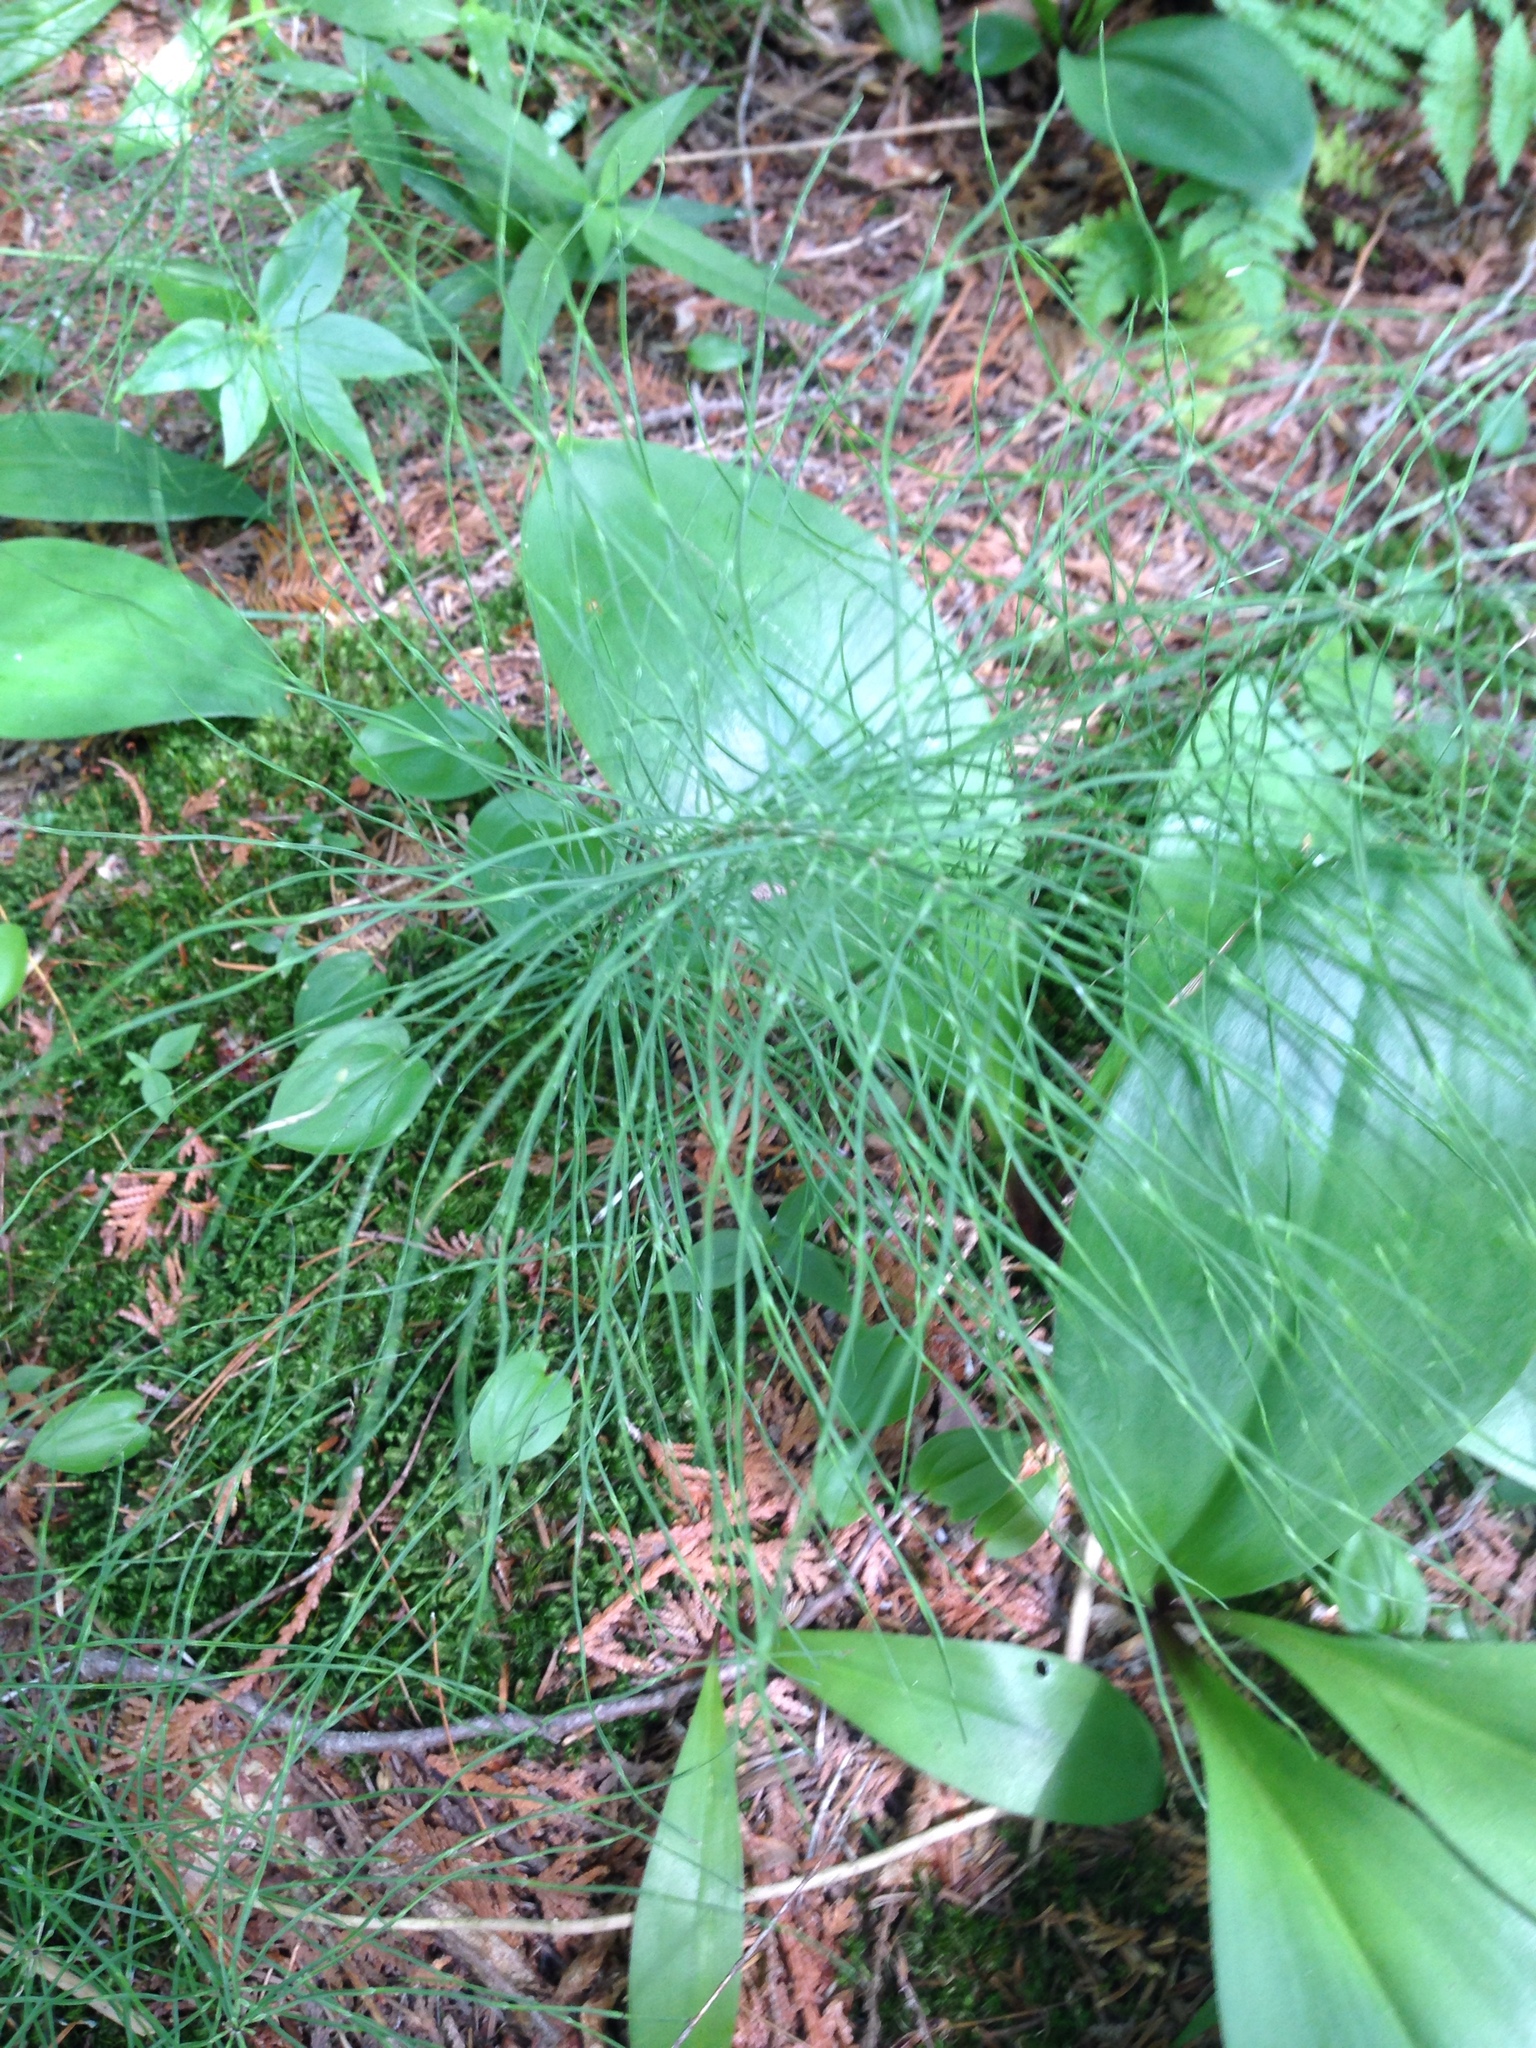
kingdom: Plantae
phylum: Tracheophyta
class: Polypodiopsida
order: Equisetales
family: Equisetaceae
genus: Equisetum
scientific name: Equisetum
